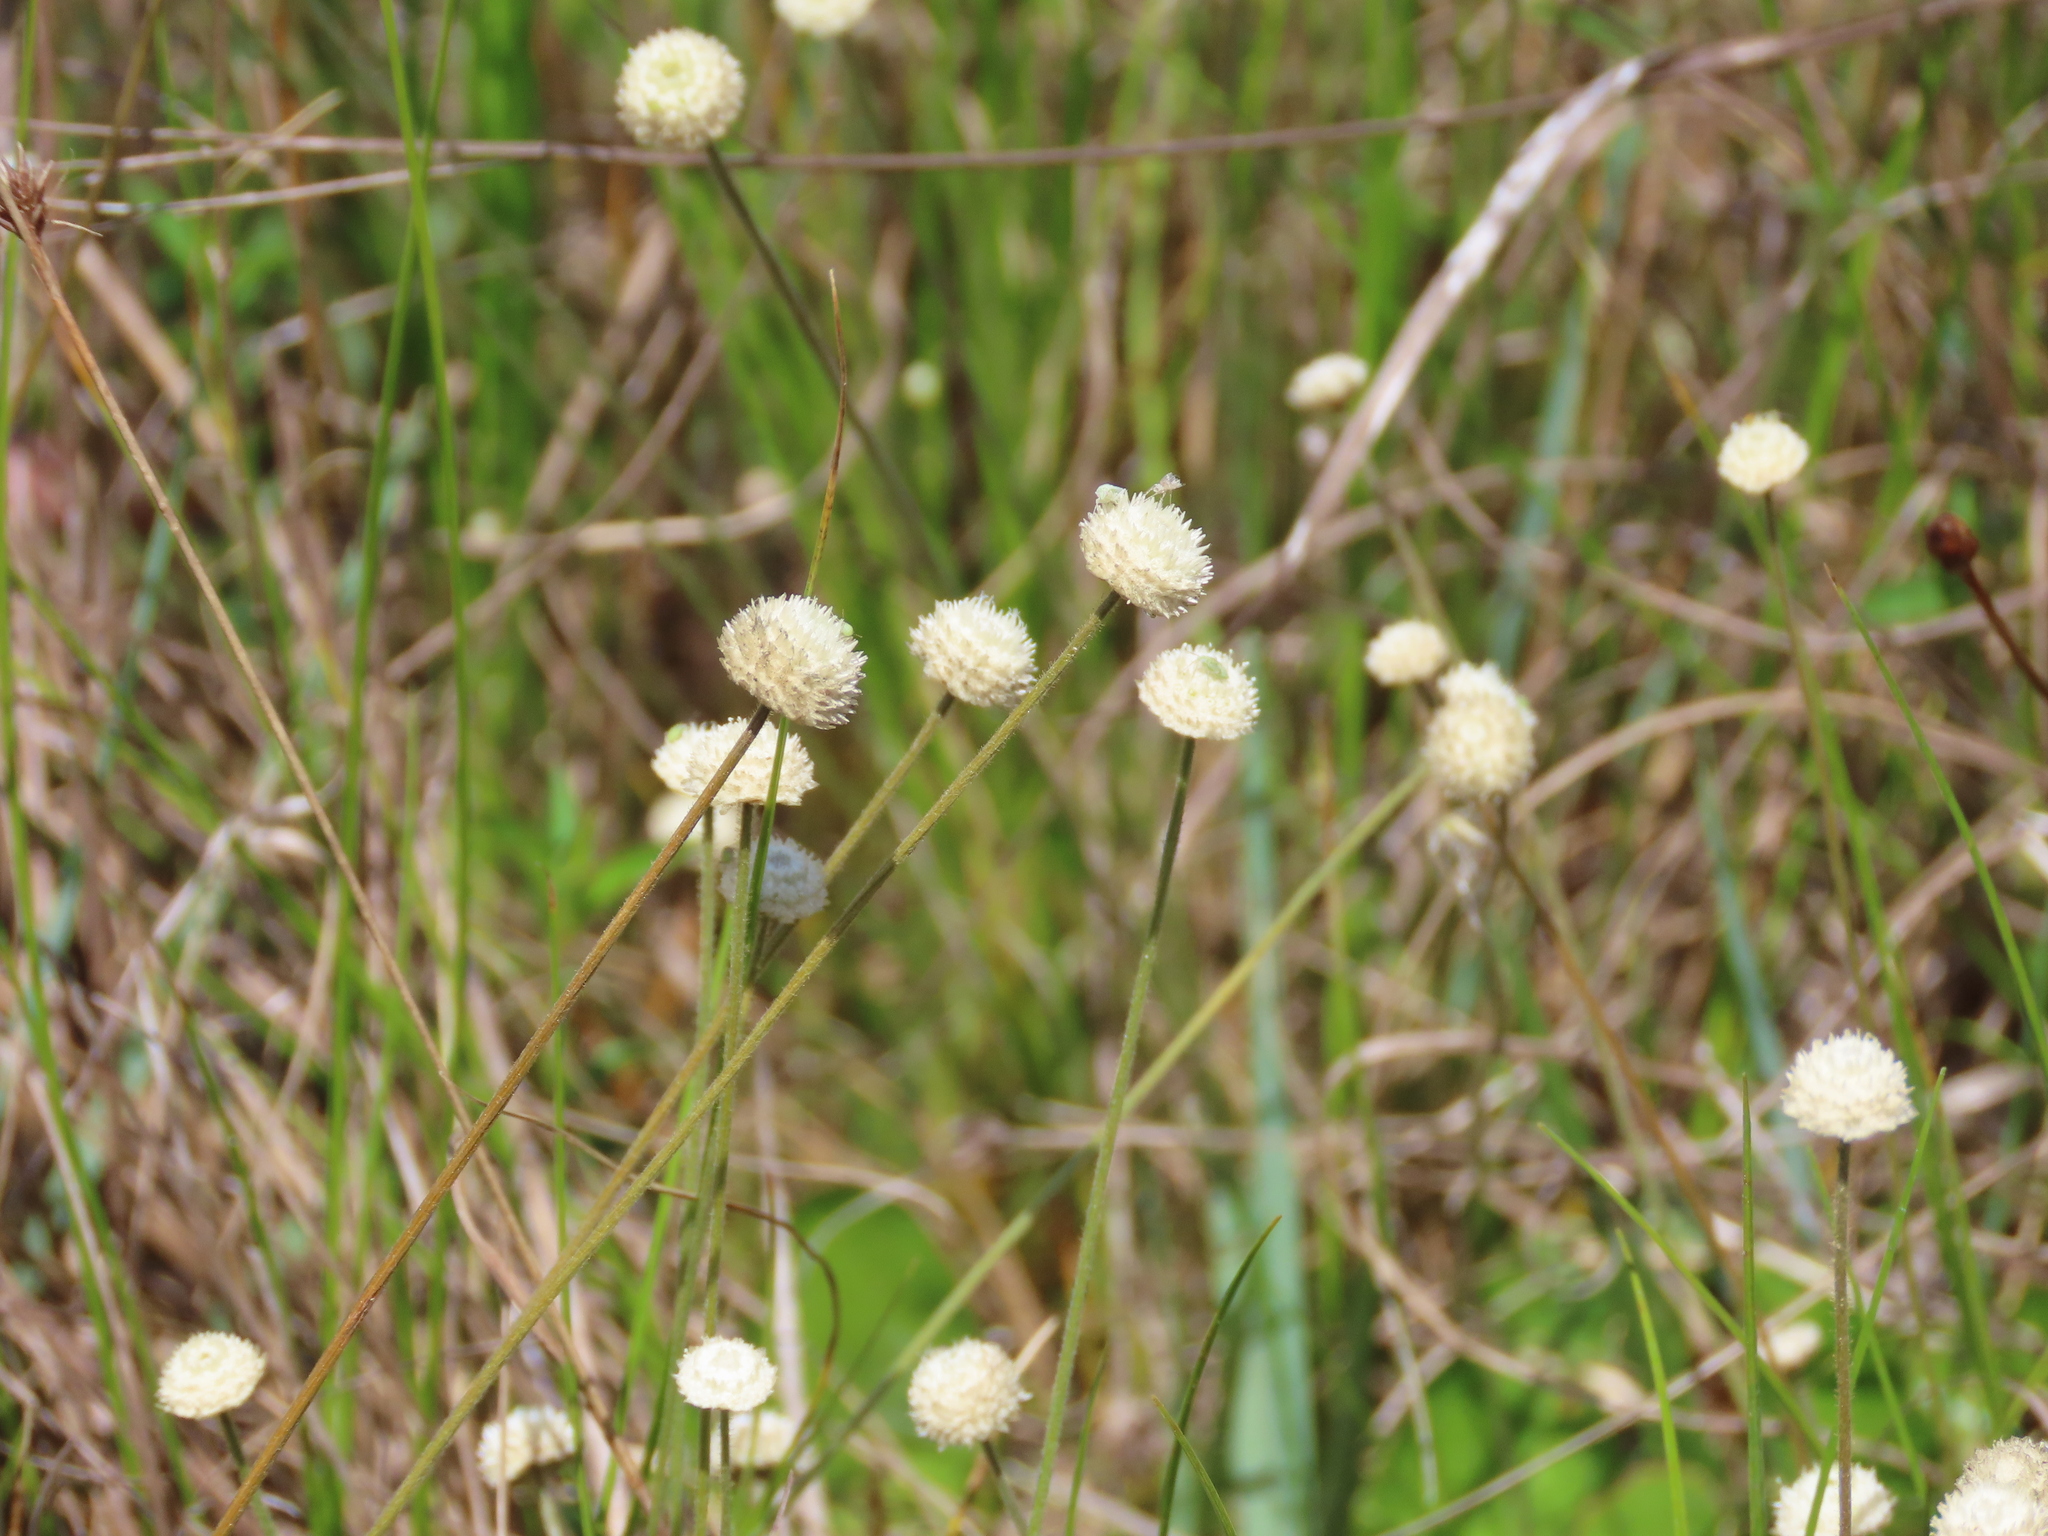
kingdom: Plantae
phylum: Tracheophyta
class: Liliopsida
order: Poales
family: Eriocaulaceae
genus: Syngonanthus
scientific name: Syngonanthus flavidulus
